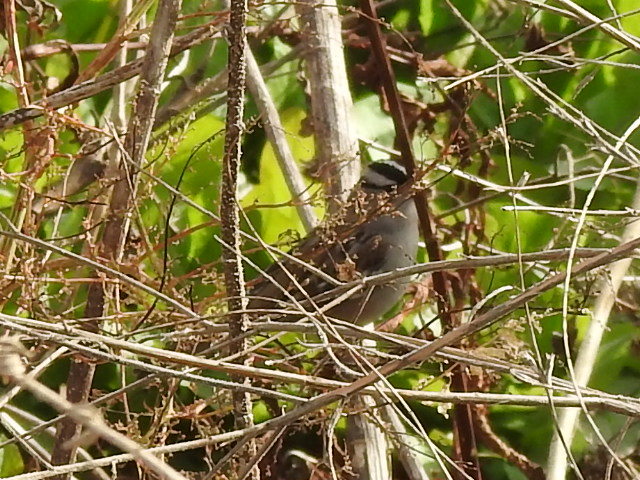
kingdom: Animalia
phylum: Chordata
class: Aves
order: Passeriformes
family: Passerellidae
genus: Zonotrichia
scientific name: Zonotrichia leucophrys
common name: White-crowned sparrow
